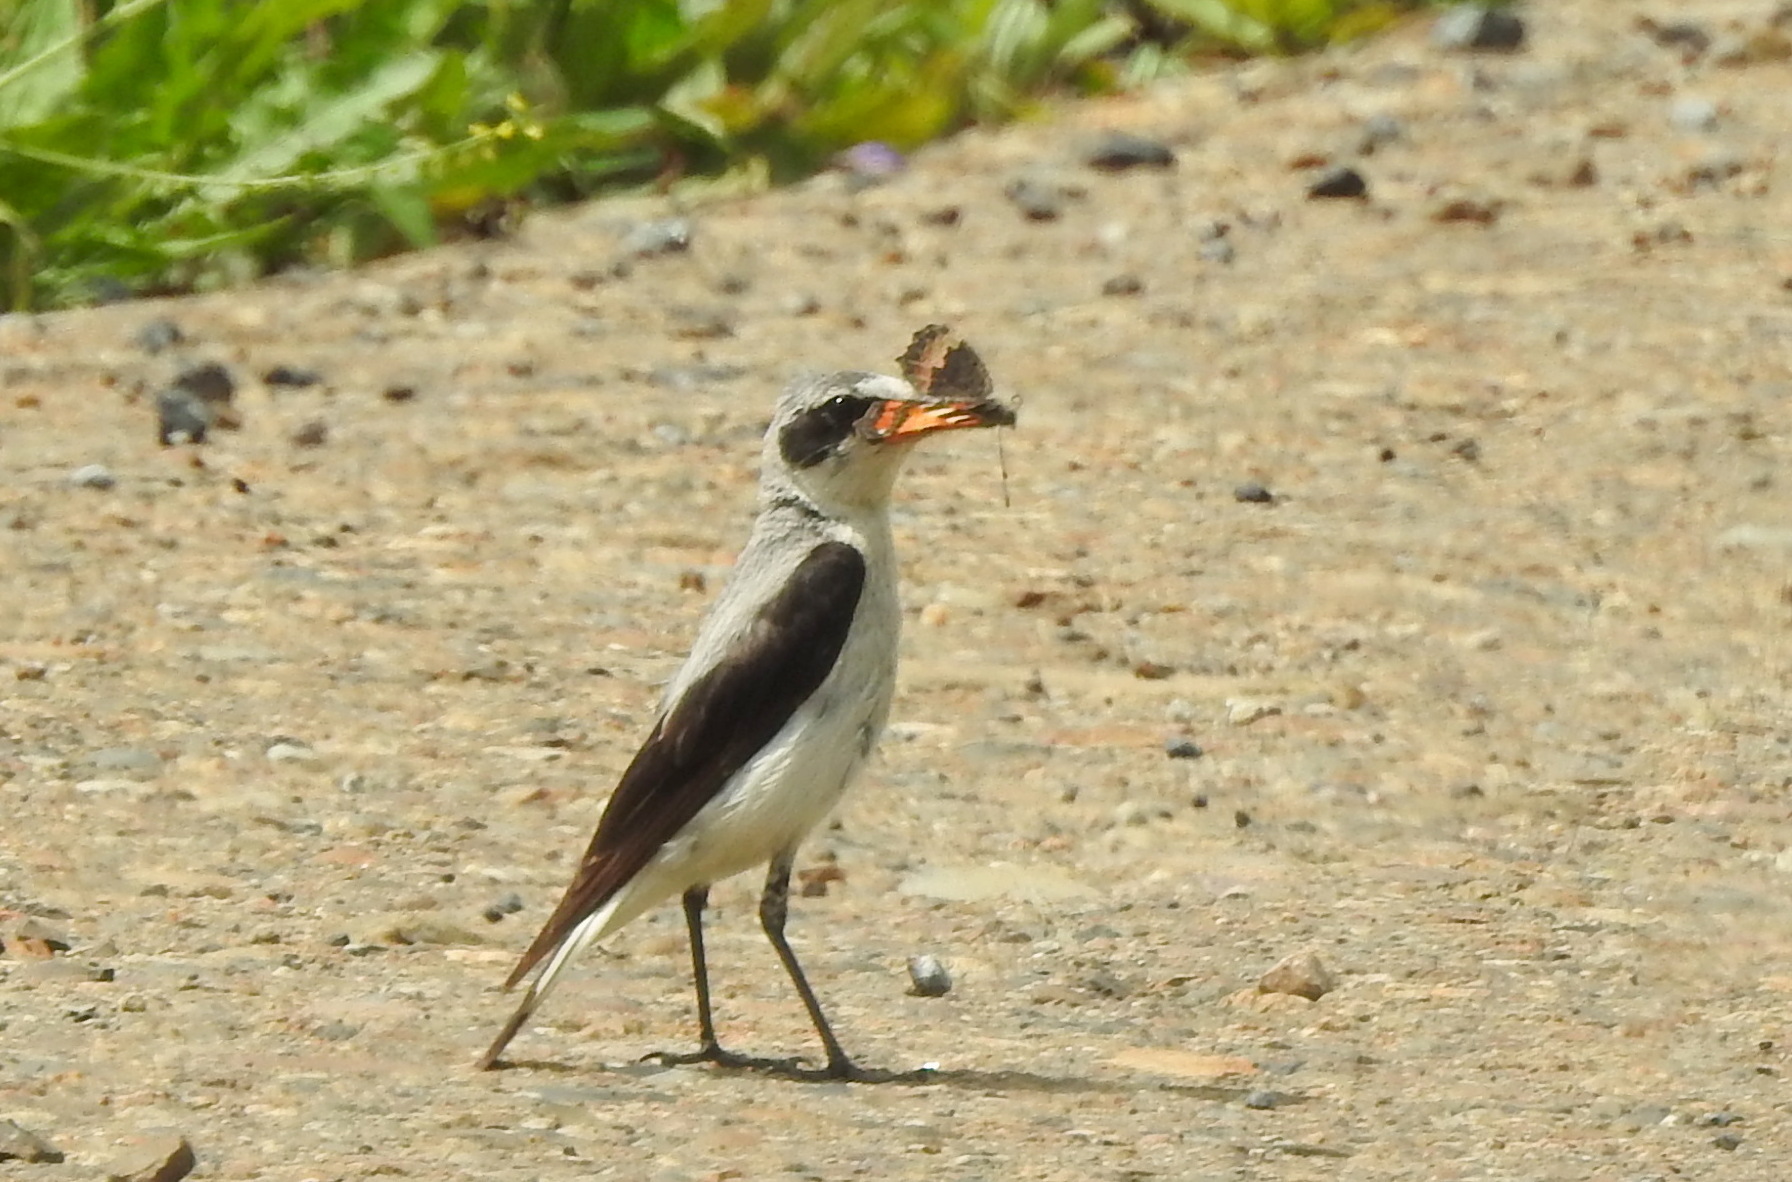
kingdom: Animalia
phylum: Chordata
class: Aves
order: Passeriformes
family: Muscicapidae
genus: Oenanthe
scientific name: Oenanthe oenanthe
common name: Northern wheatear
